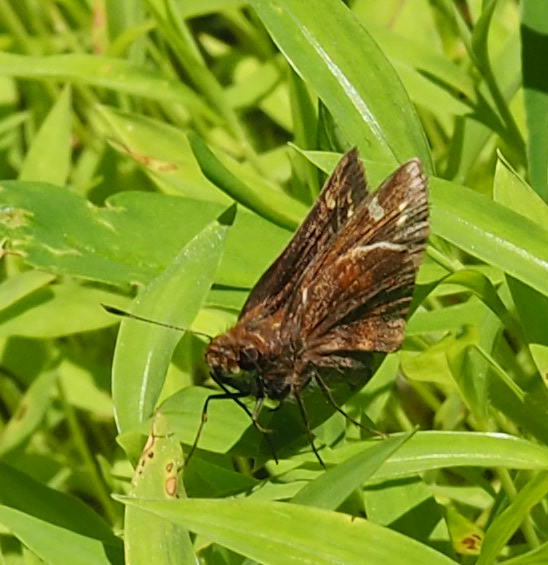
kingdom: Animalia
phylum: Arthropoda
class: Insecta
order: Lepidoptera
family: Hesperiidae
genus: Lon
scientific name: Lon zabulon
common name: Zabulon skipper
